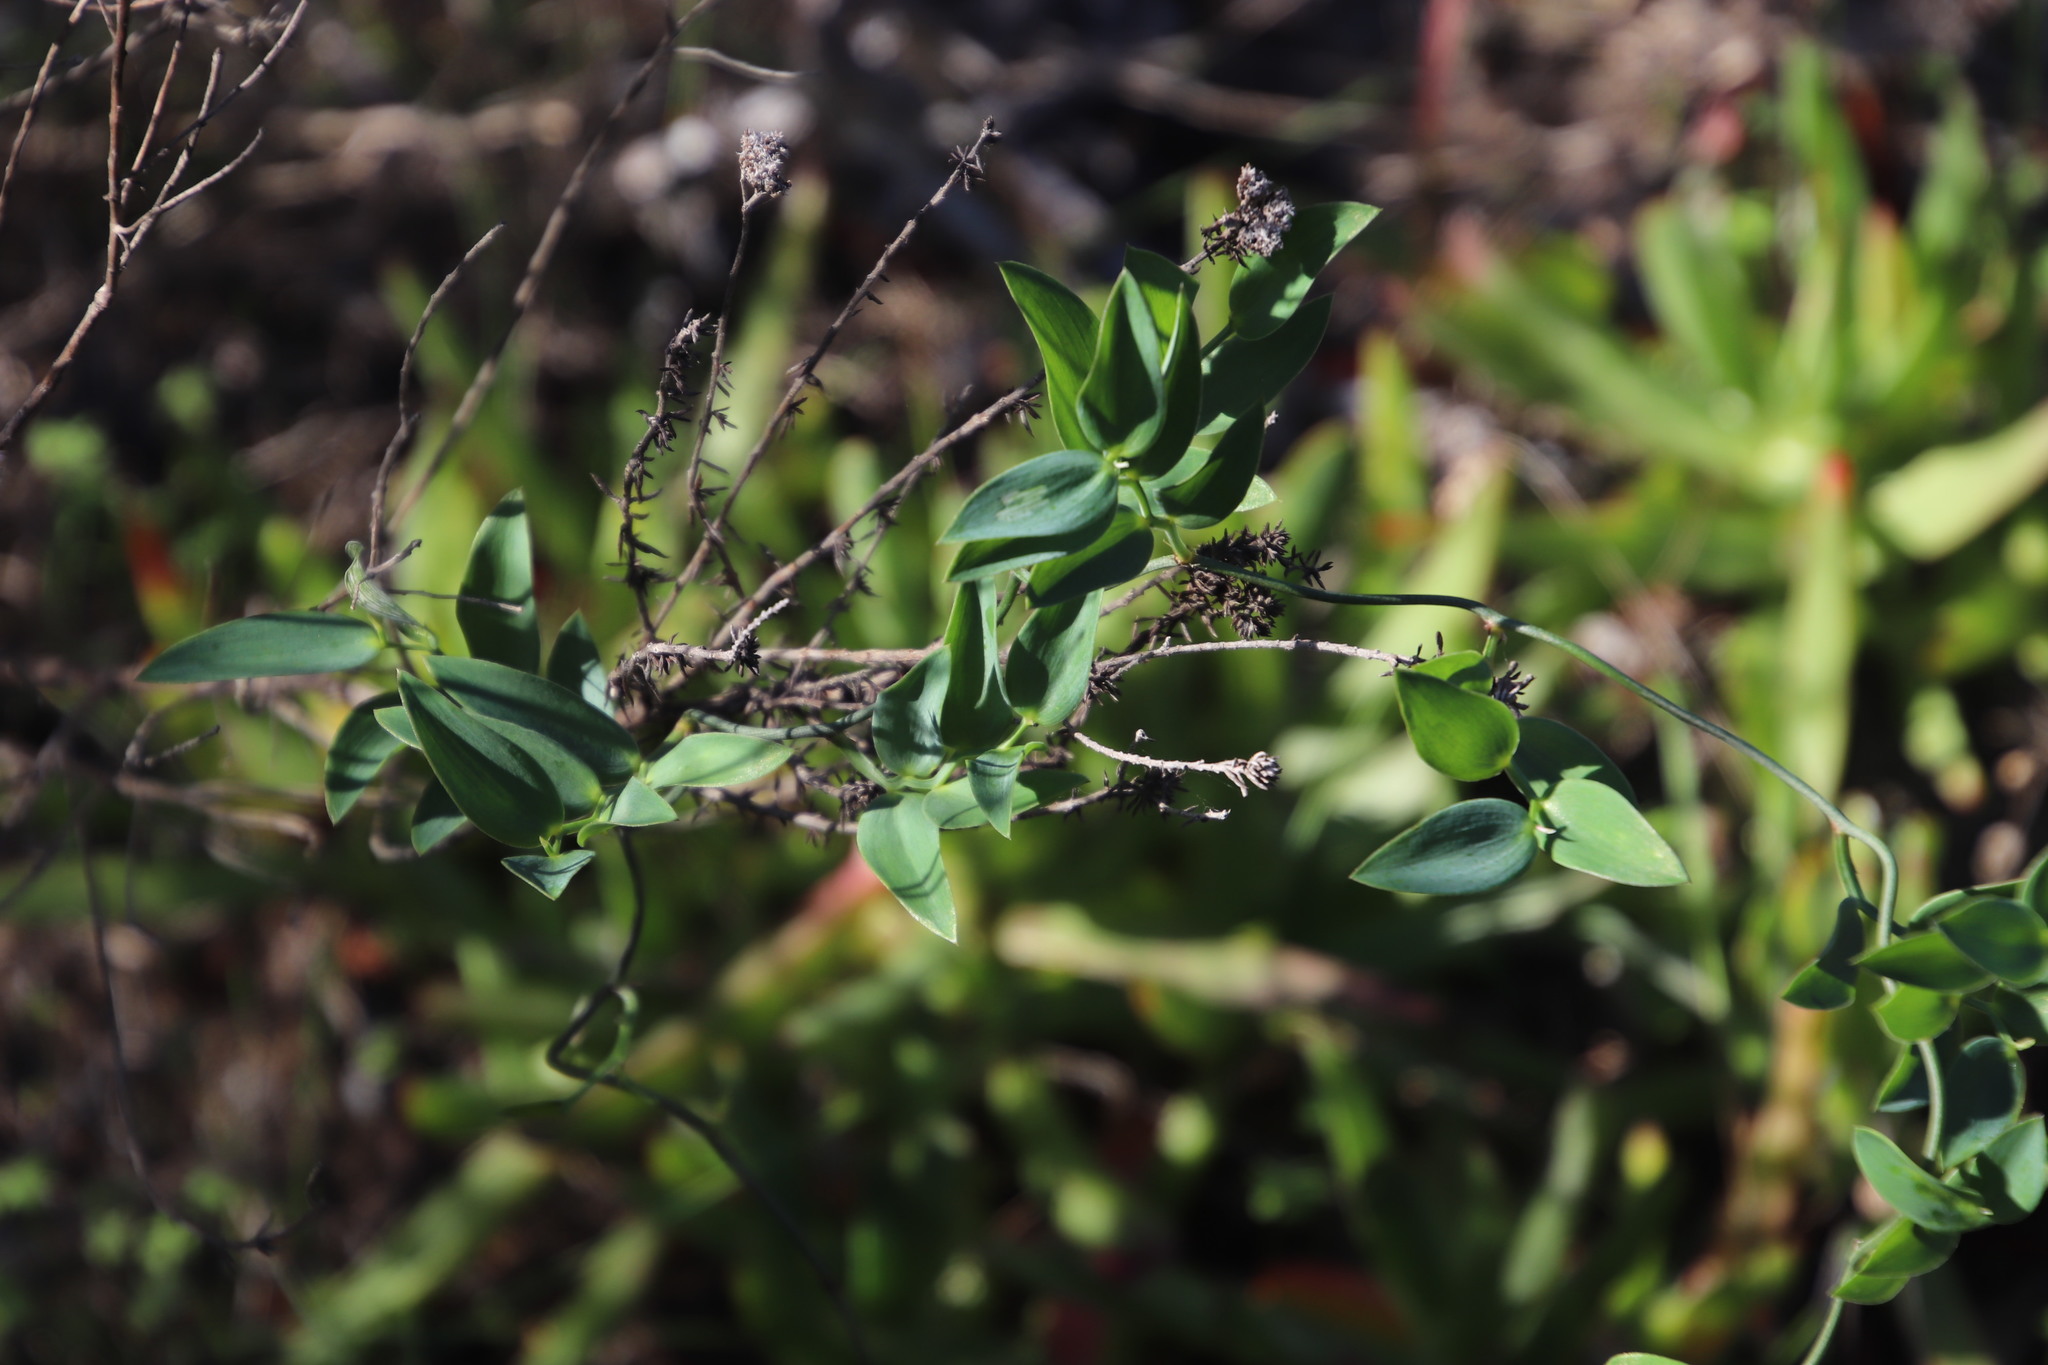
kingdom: Plantae
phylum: Tracheophyta
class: Liliopsida
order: Asparagales
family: Asparagaceae
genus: Asparagus
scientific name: Asparagus asparagoides
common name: African asparagus fern
